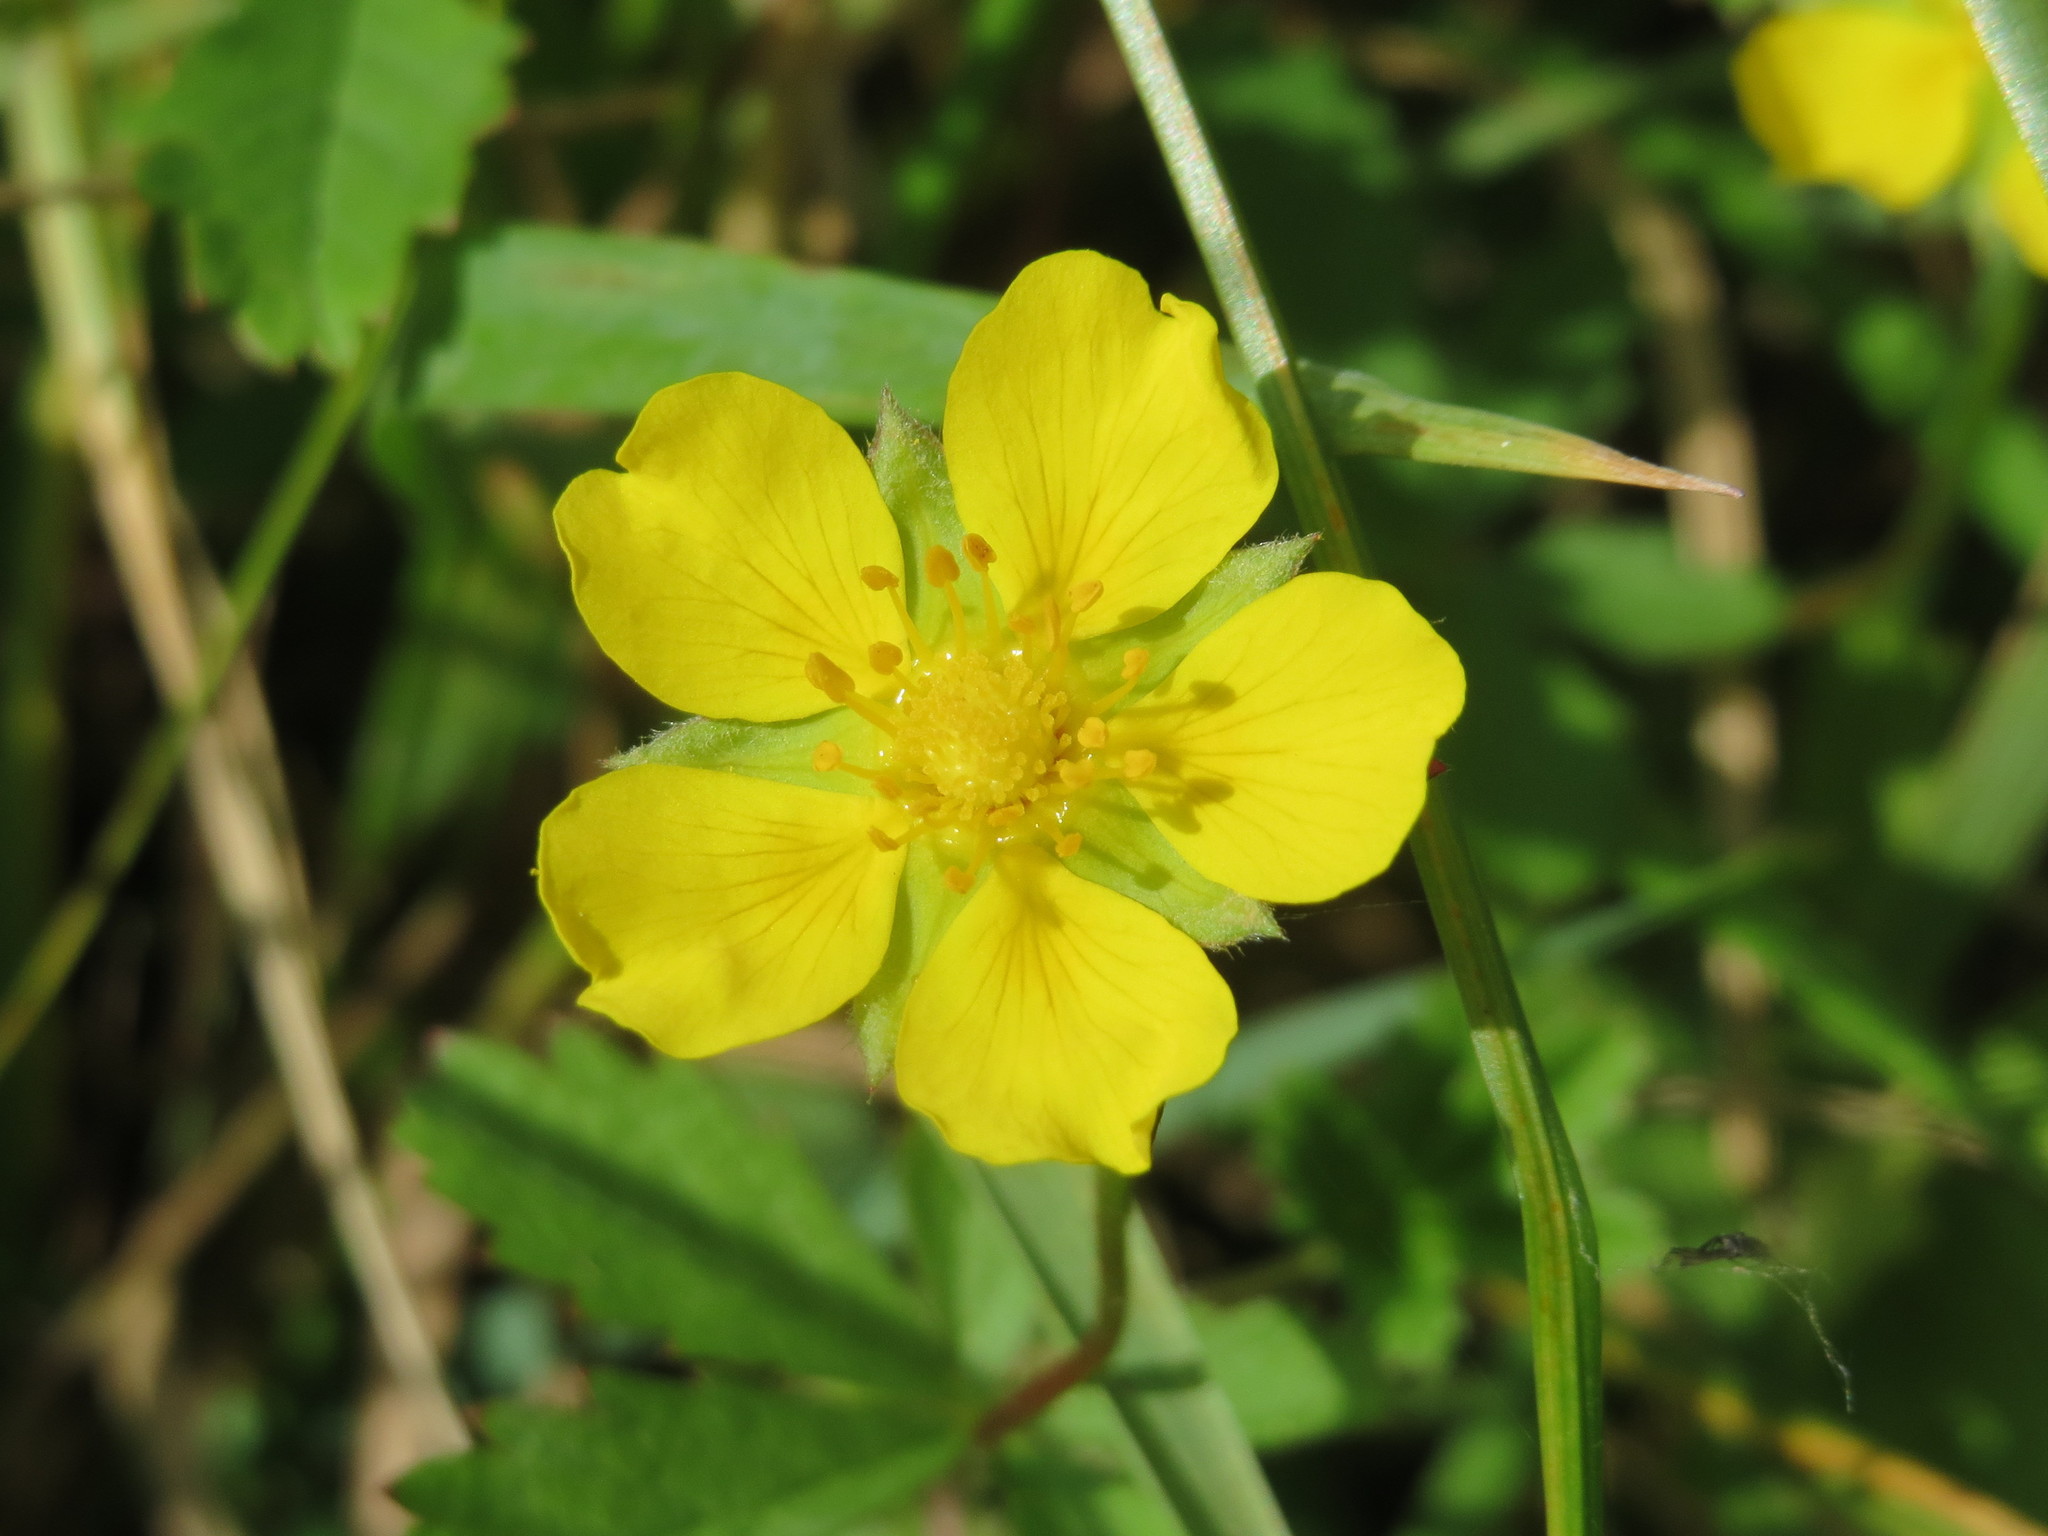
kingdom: Plantae
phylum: Tracheophyta
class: Magnoliopsida
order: Rosales
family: Rosaceae
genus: Potentilla
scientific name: Potentilla reptans
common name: Creeping cinquefoil
